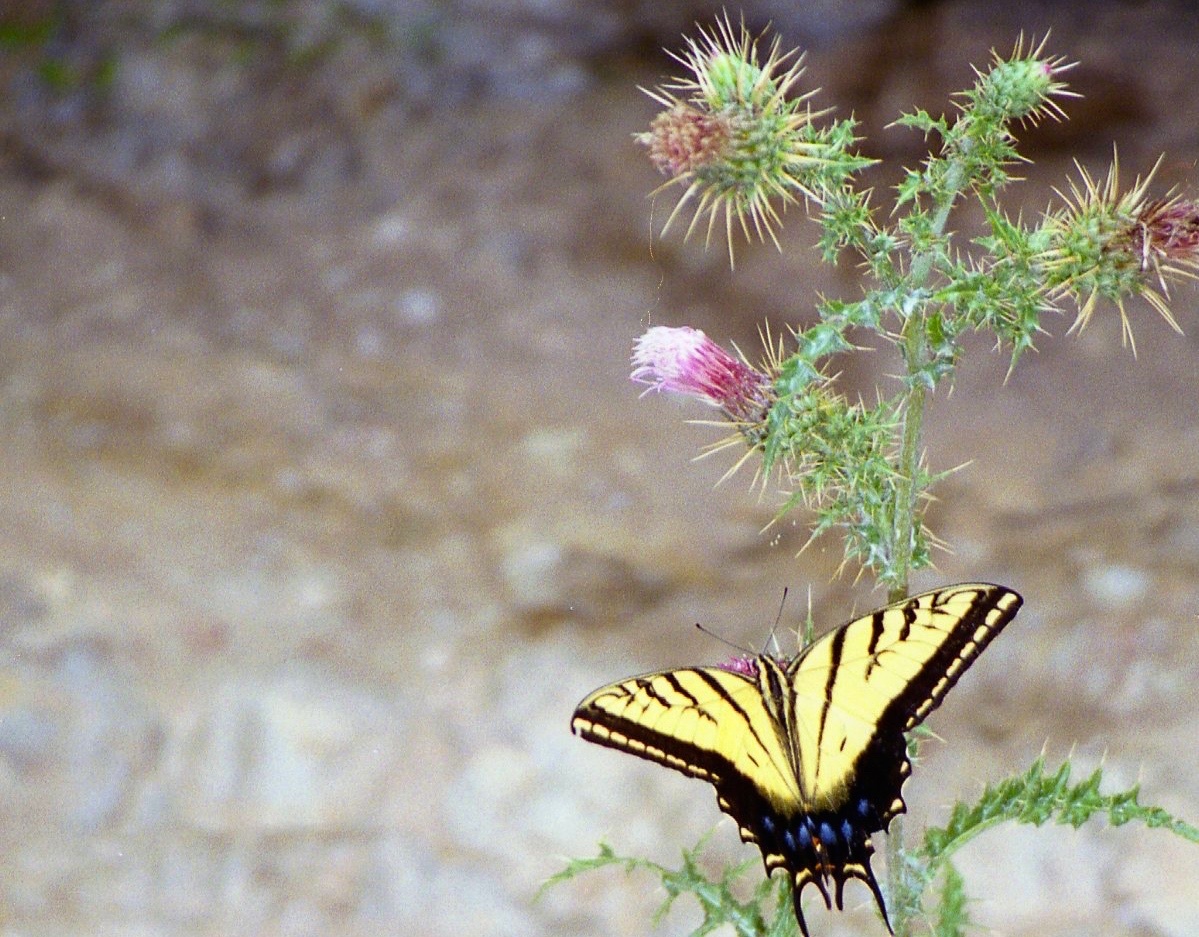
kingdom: Animalia
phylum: Arthropoda
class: Insecta
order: Lepidoptera
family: Papilionidae
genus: Papilio
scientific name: Papilio multicaudata
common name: Two-tailed tiger swallowtail
